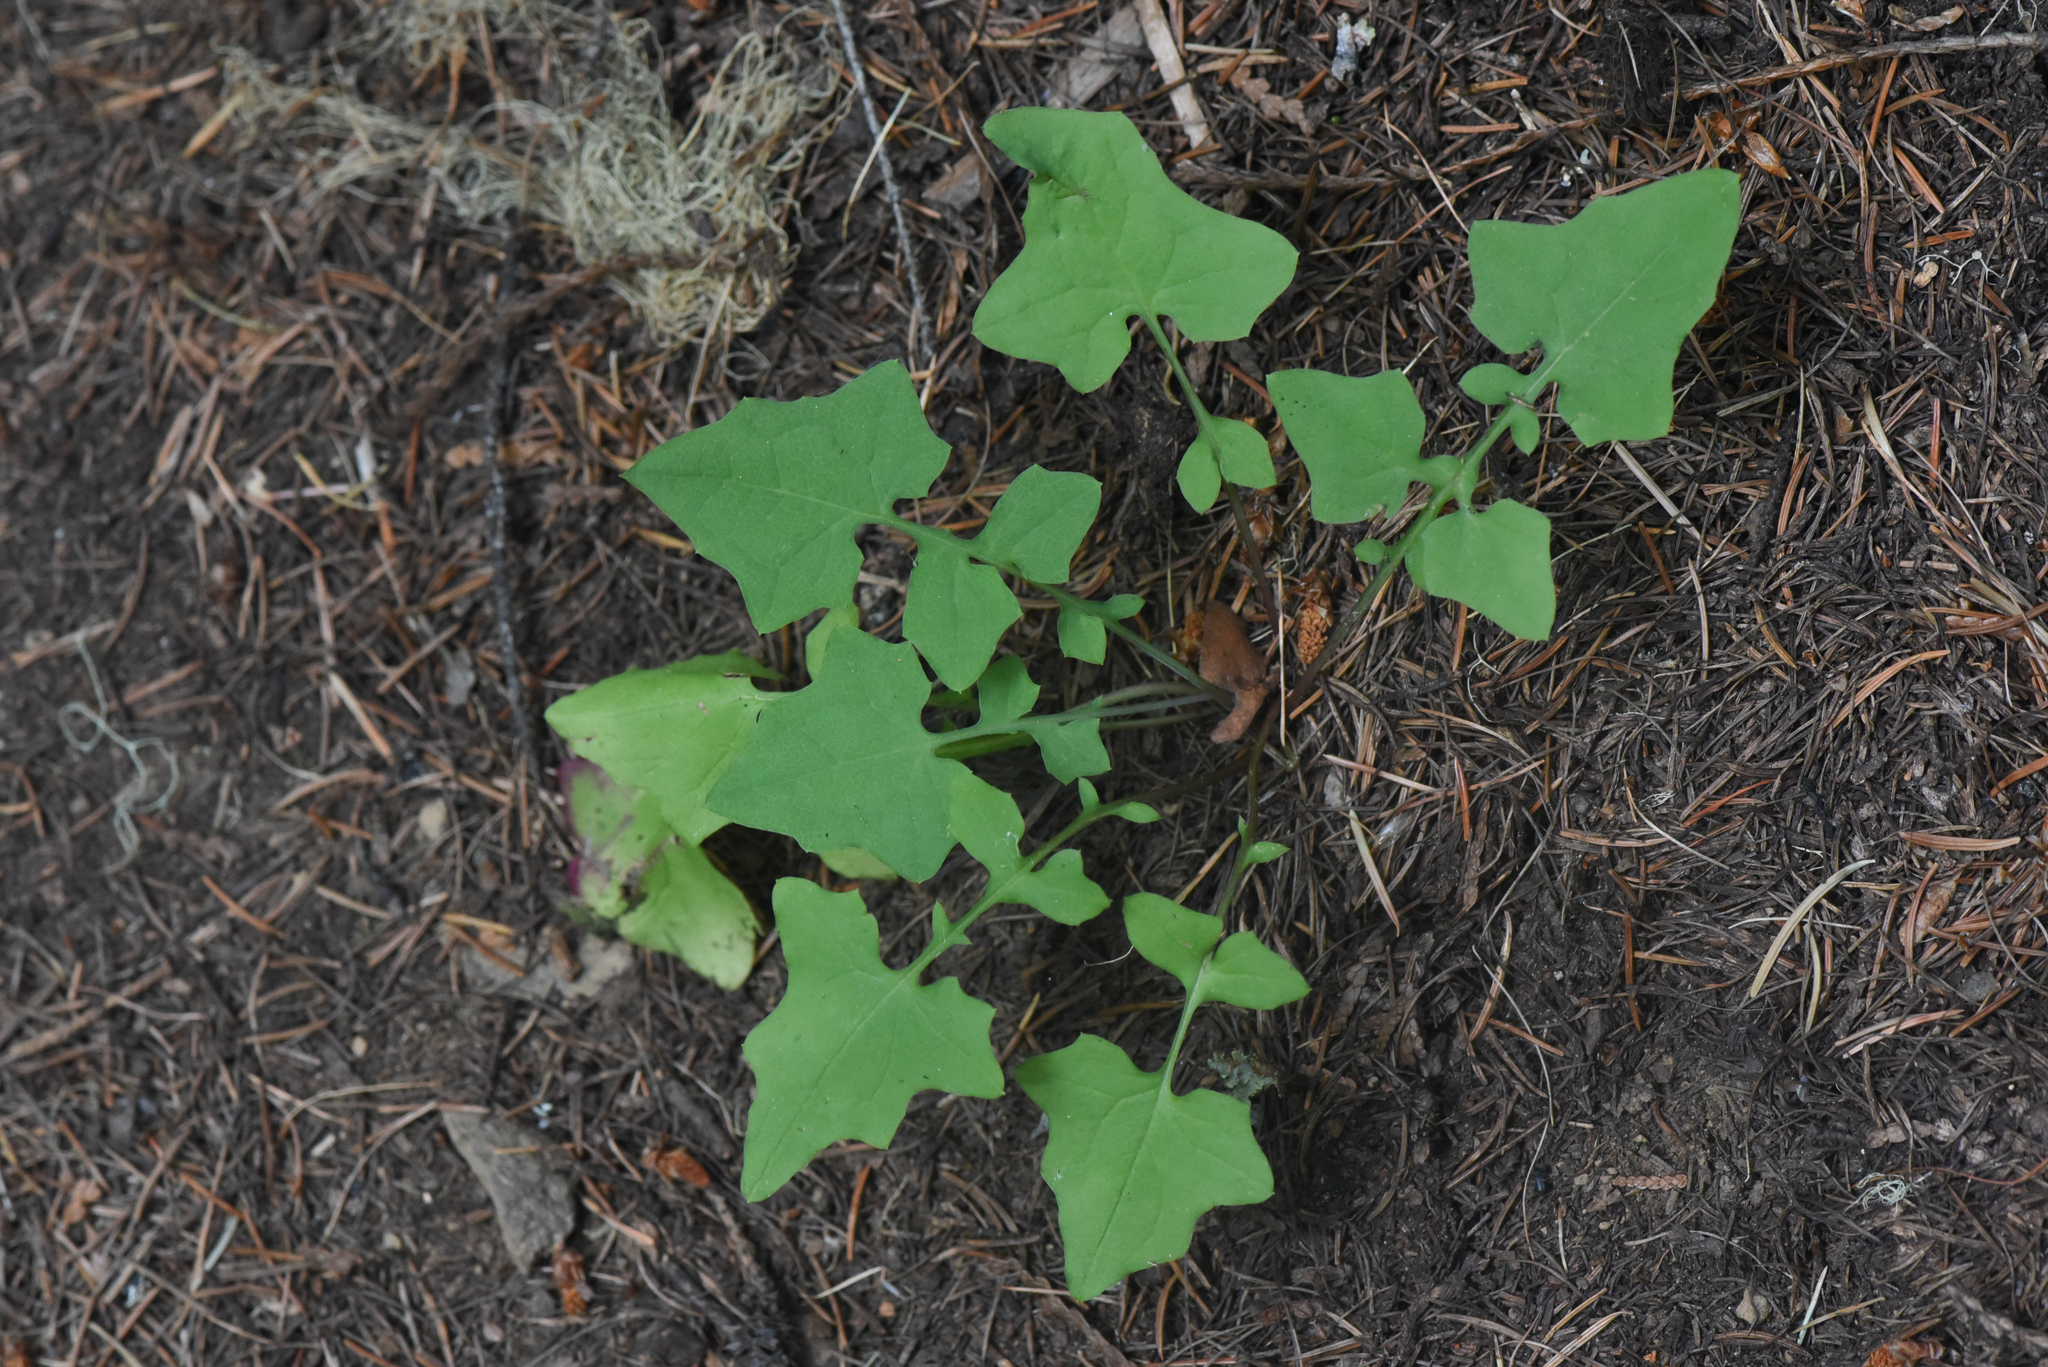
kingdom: Plantae
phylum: Tracheophyta
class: Magnoliopsida
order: Asterales
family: Asteraceae
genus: Mycelis
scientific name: Mycelis muralis
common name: Wall lettuce
